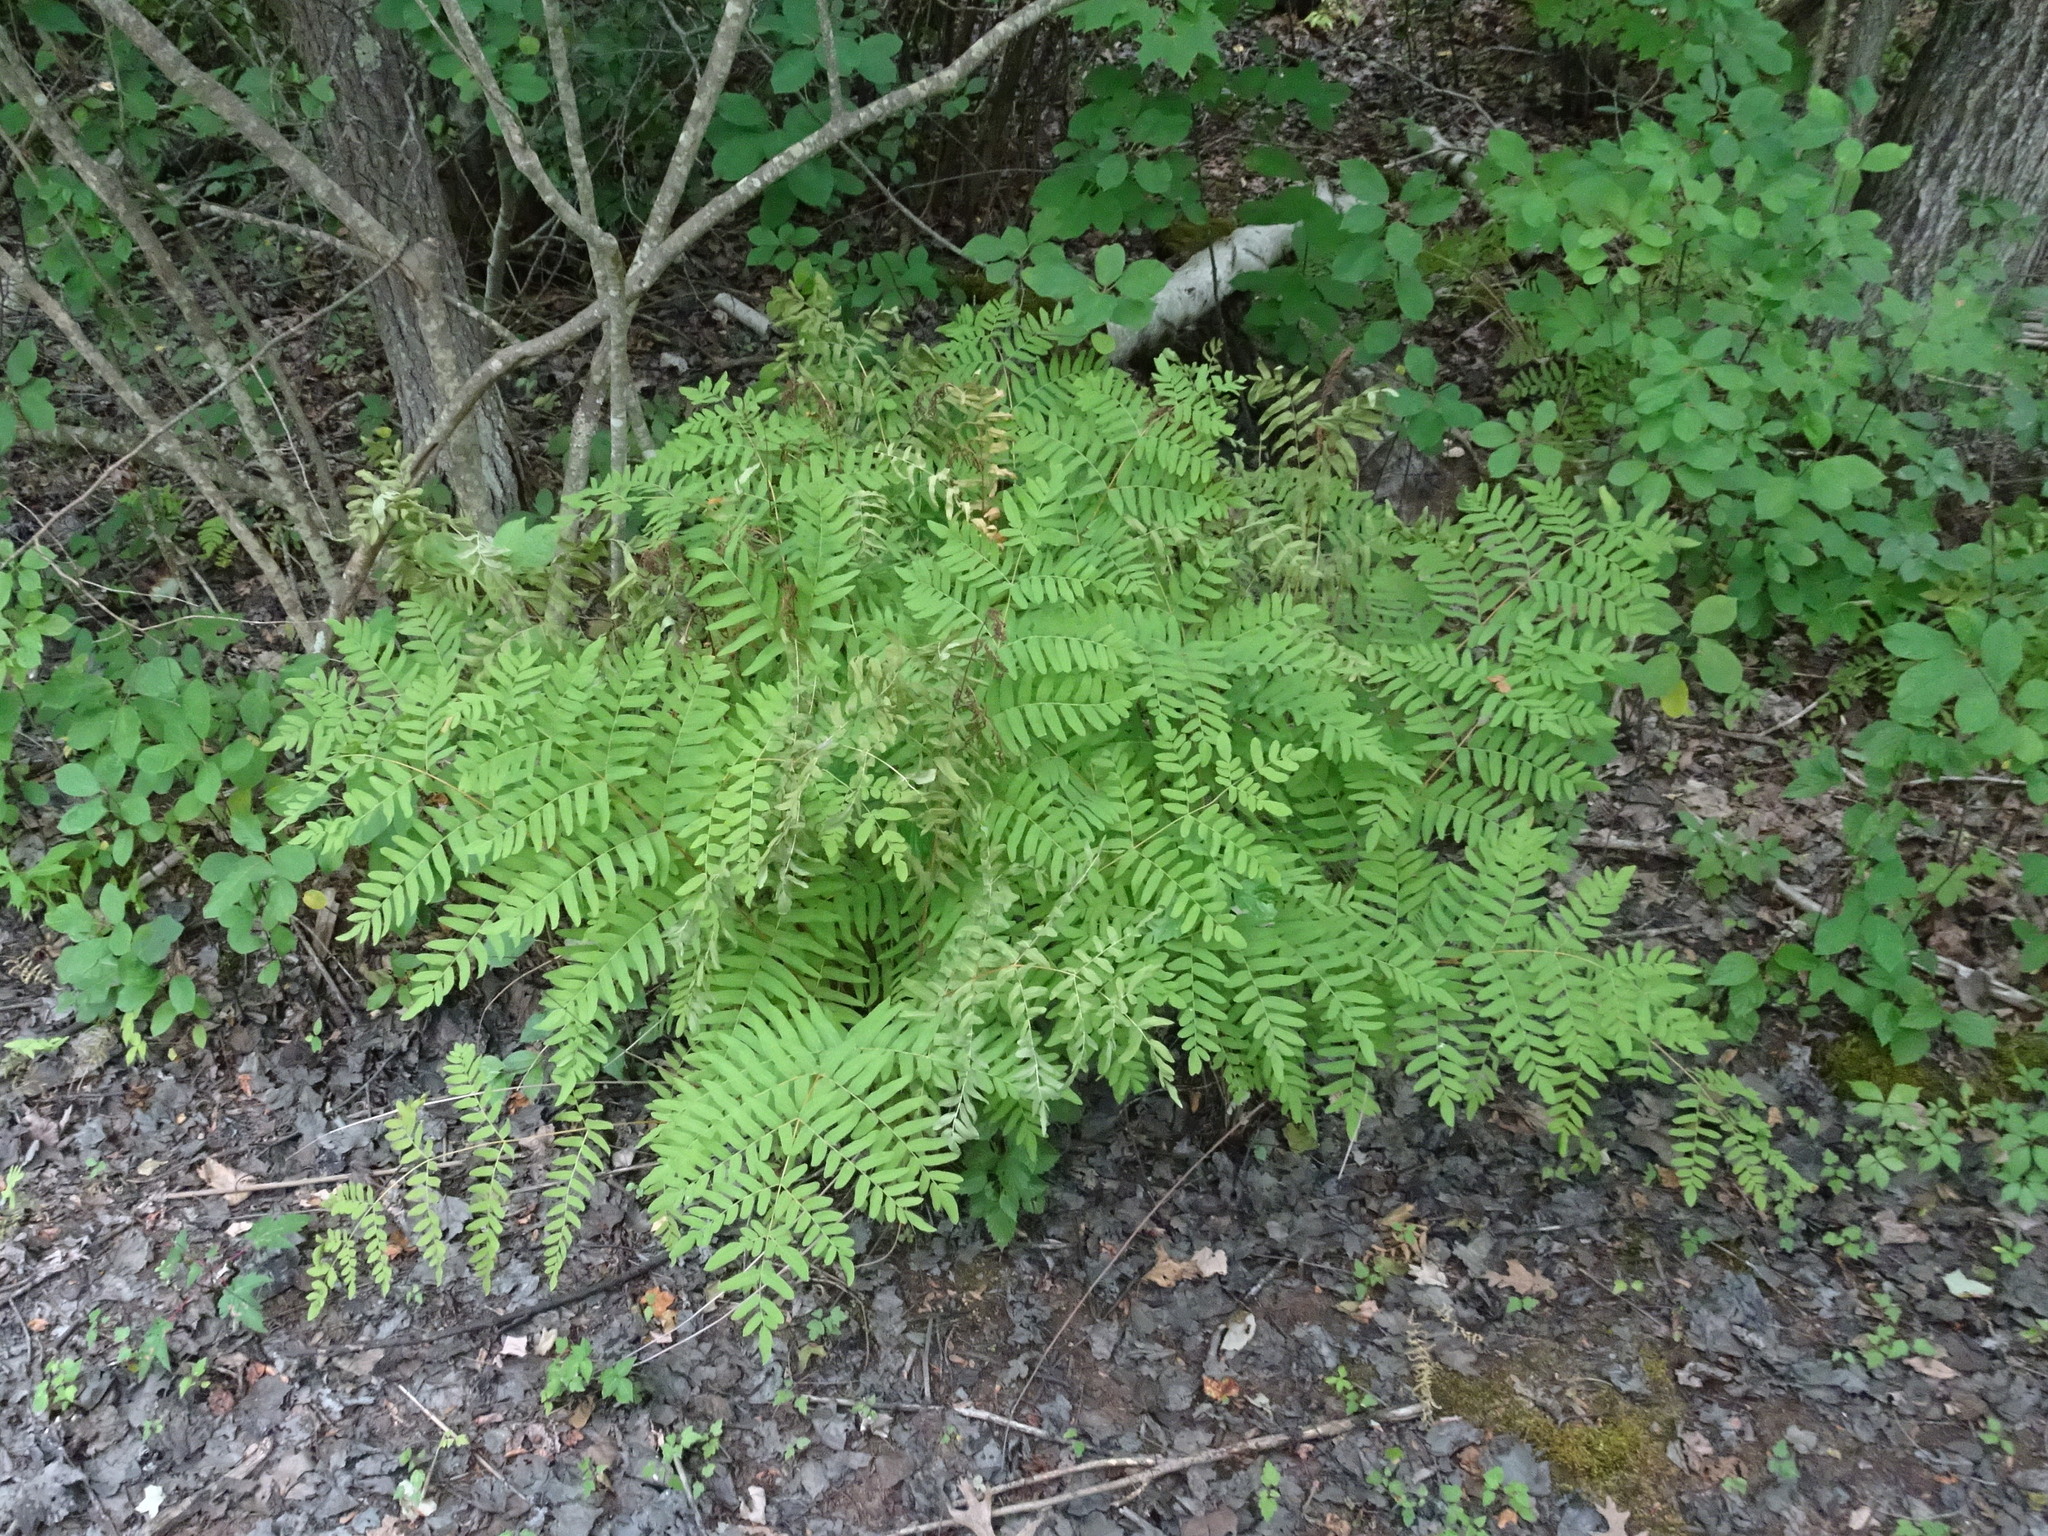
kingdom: Plantae
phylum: Tracheophyta
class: Polypodiopsida
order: Osmundales
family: Osmundaceae
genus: Osmunda
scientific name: Osmunda spectabilis
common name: American royal fern
